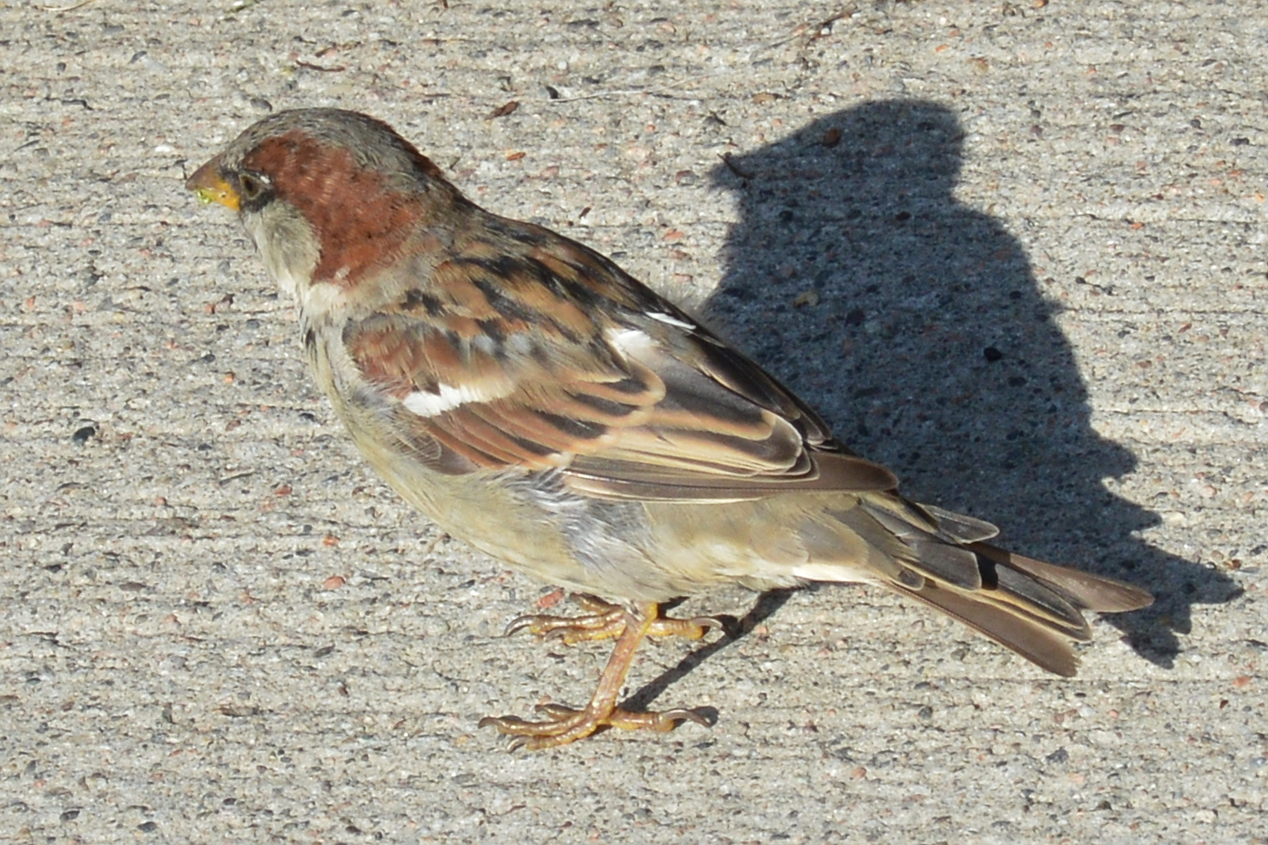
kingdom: Animalia
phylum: Chordata
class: Aves
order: Passeriformes
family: Passeridae
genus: Passer
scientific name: Passer domesticus
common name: House sparrow
